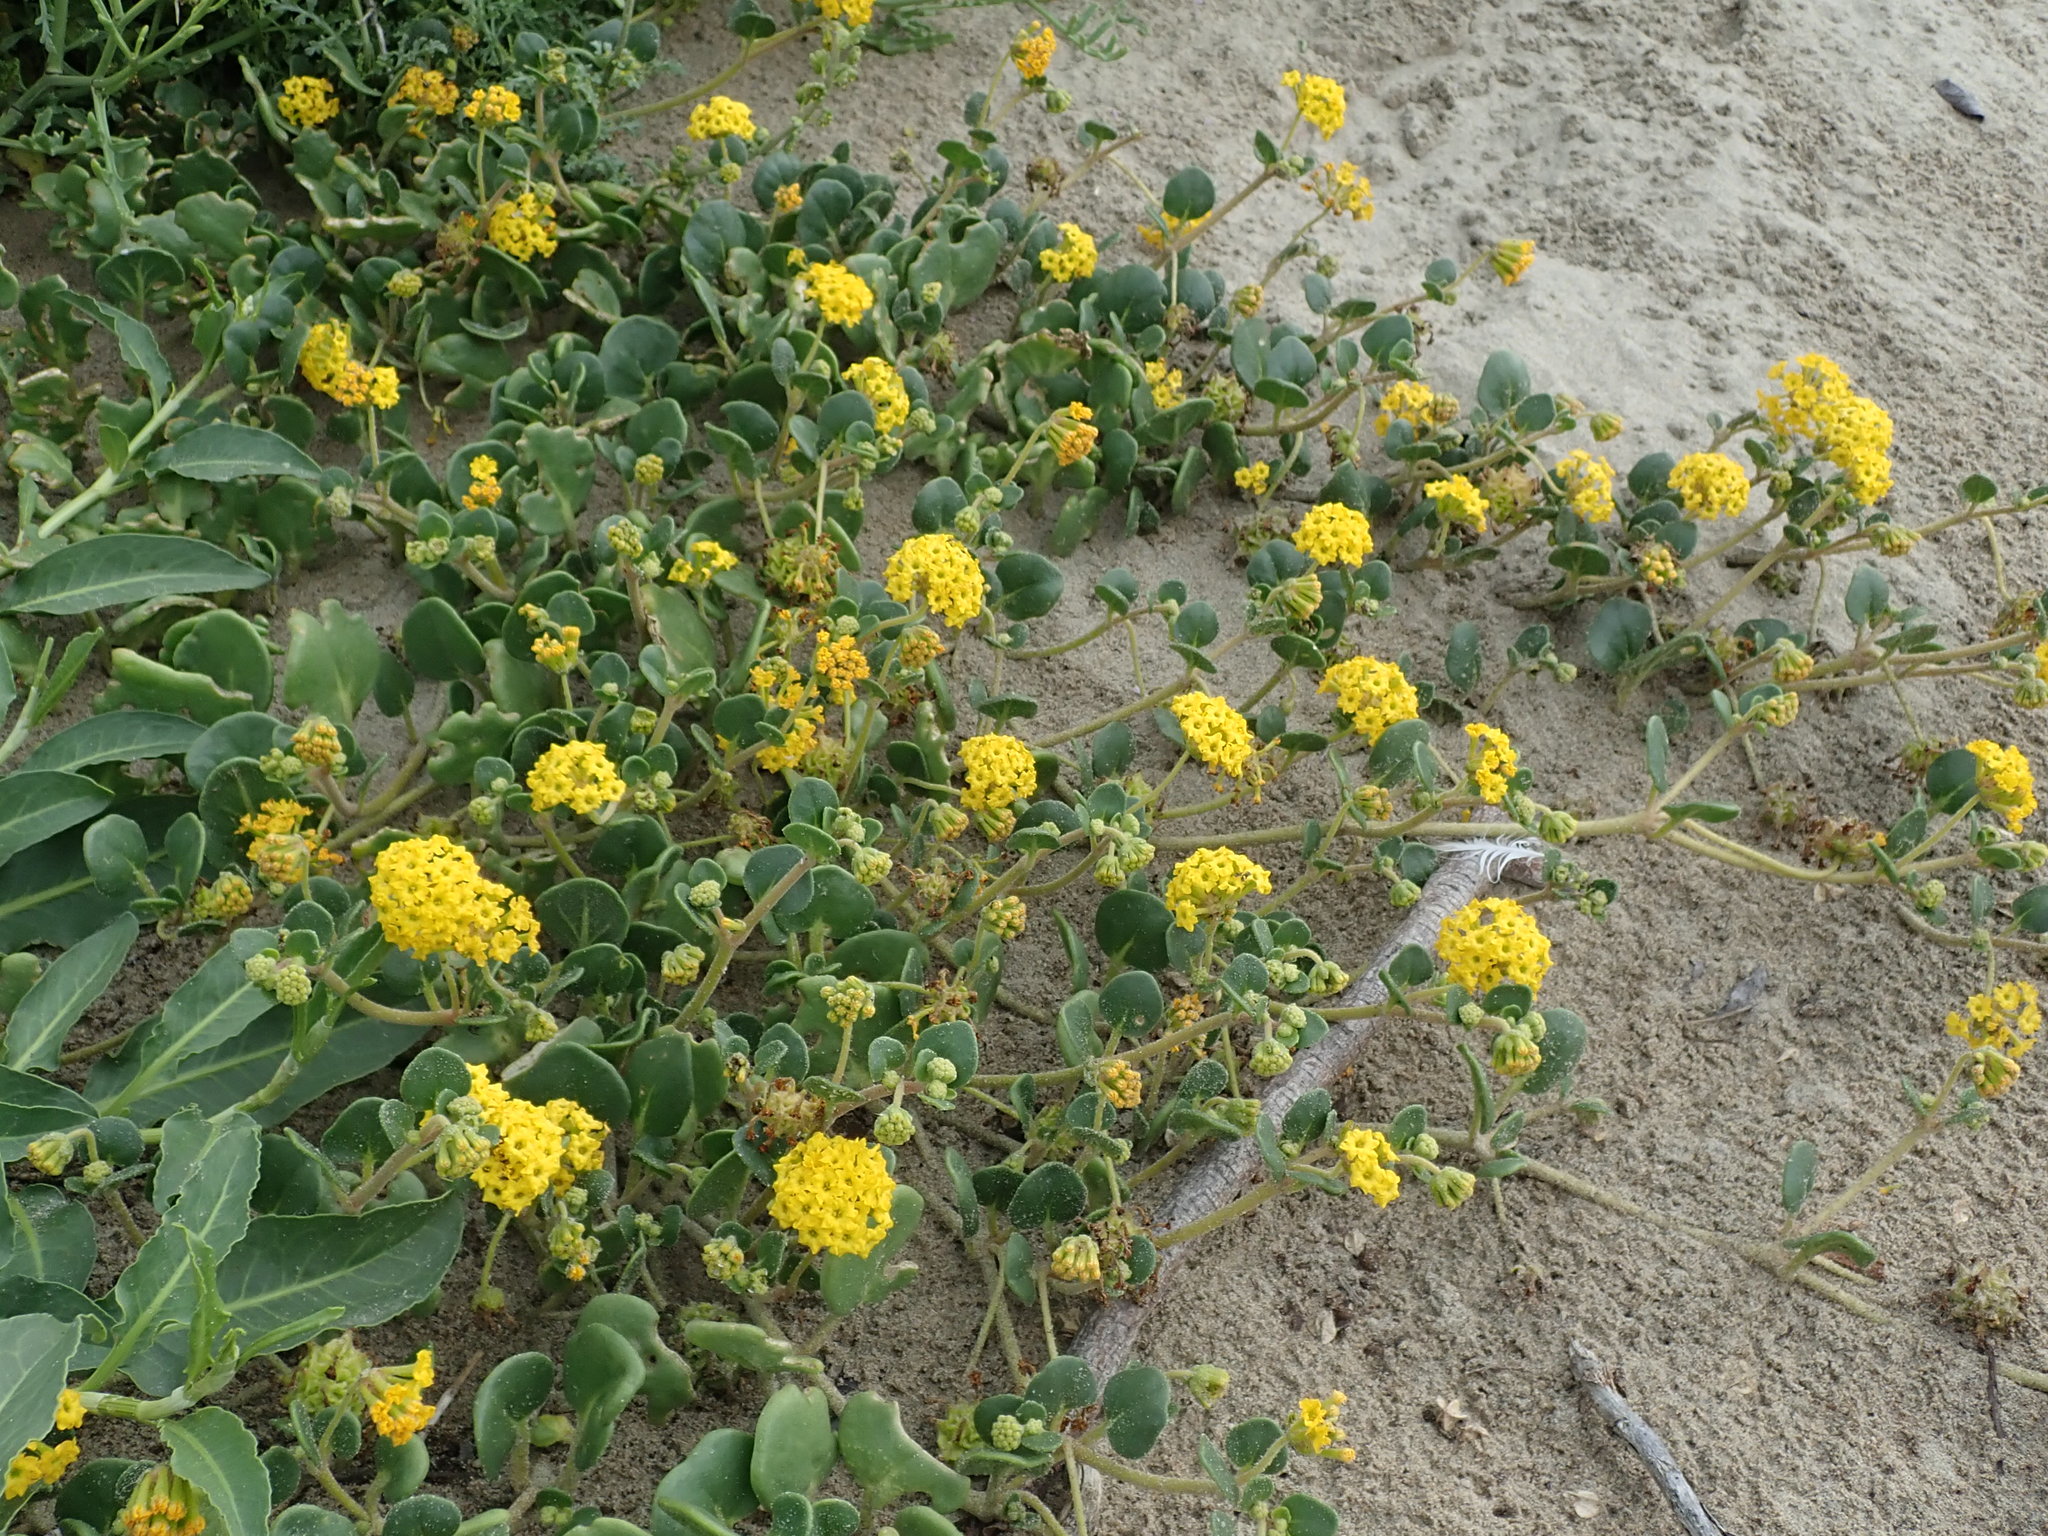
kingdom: Plantae
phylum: Tracheophyta
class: Magnoliopsida
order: Caryophyllales
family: Nyctaginaceae
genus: Abronia
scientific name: Abronia latifolia
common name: Yellow sand-verbena
